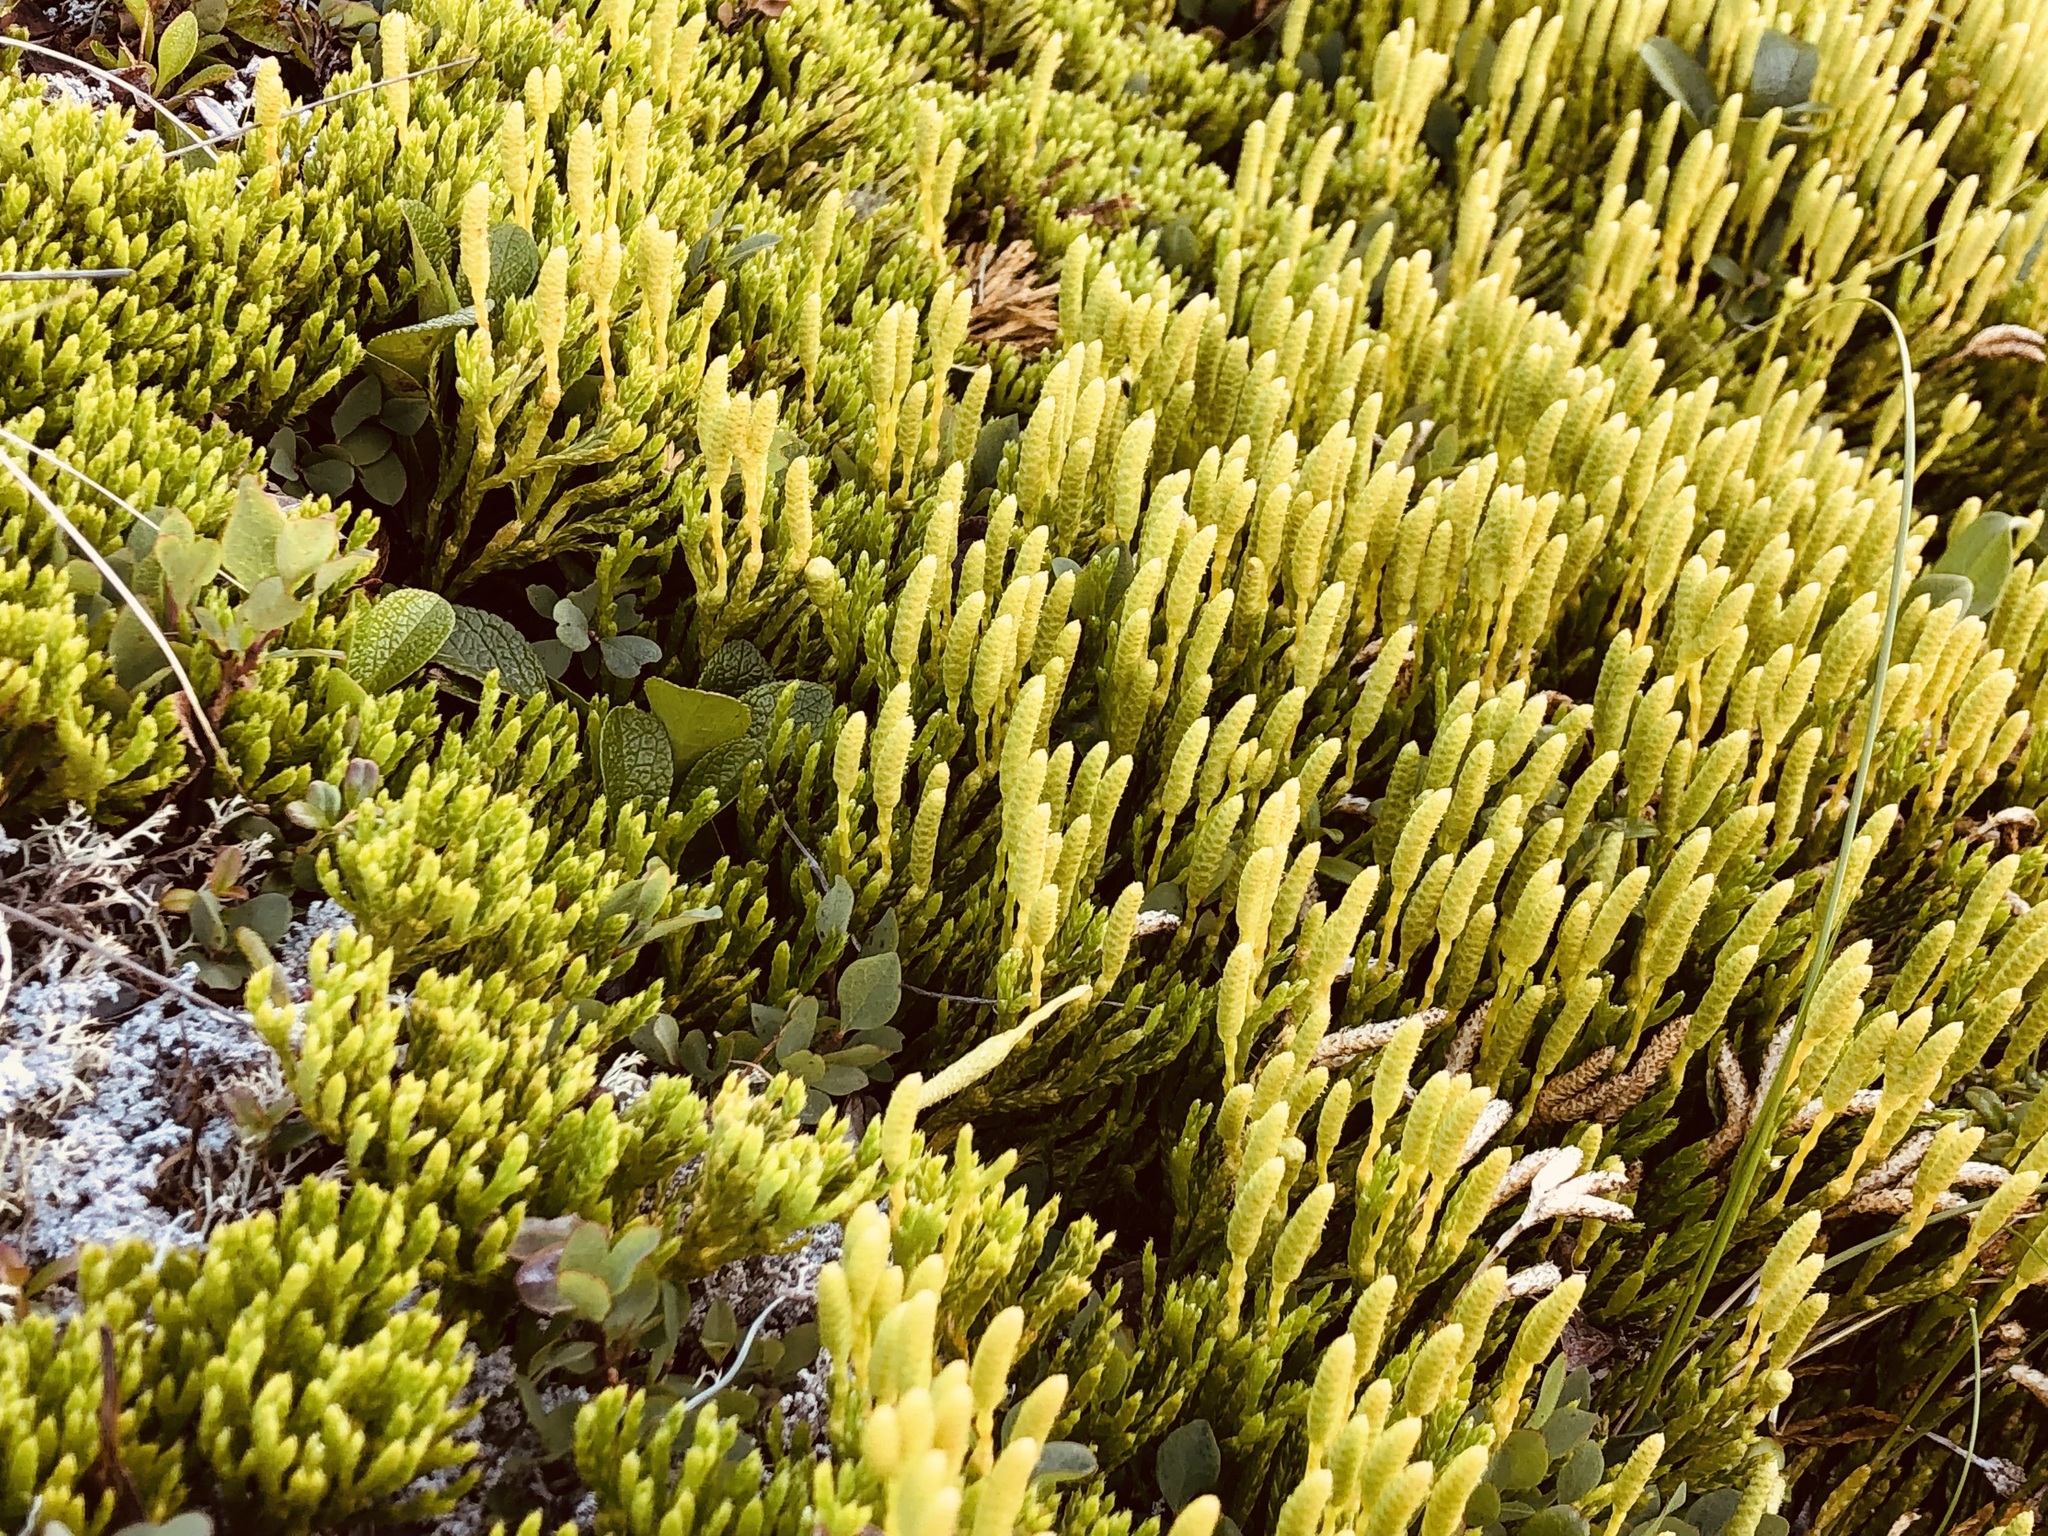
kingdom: Plantae
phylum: Tracheophyta
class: Lycopodiopsida
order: Lycopodiales
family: Lycopodiaceae
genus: Diphasiastrum
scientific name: Diphasiastrum alpinum
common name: Alpine clubmoss
